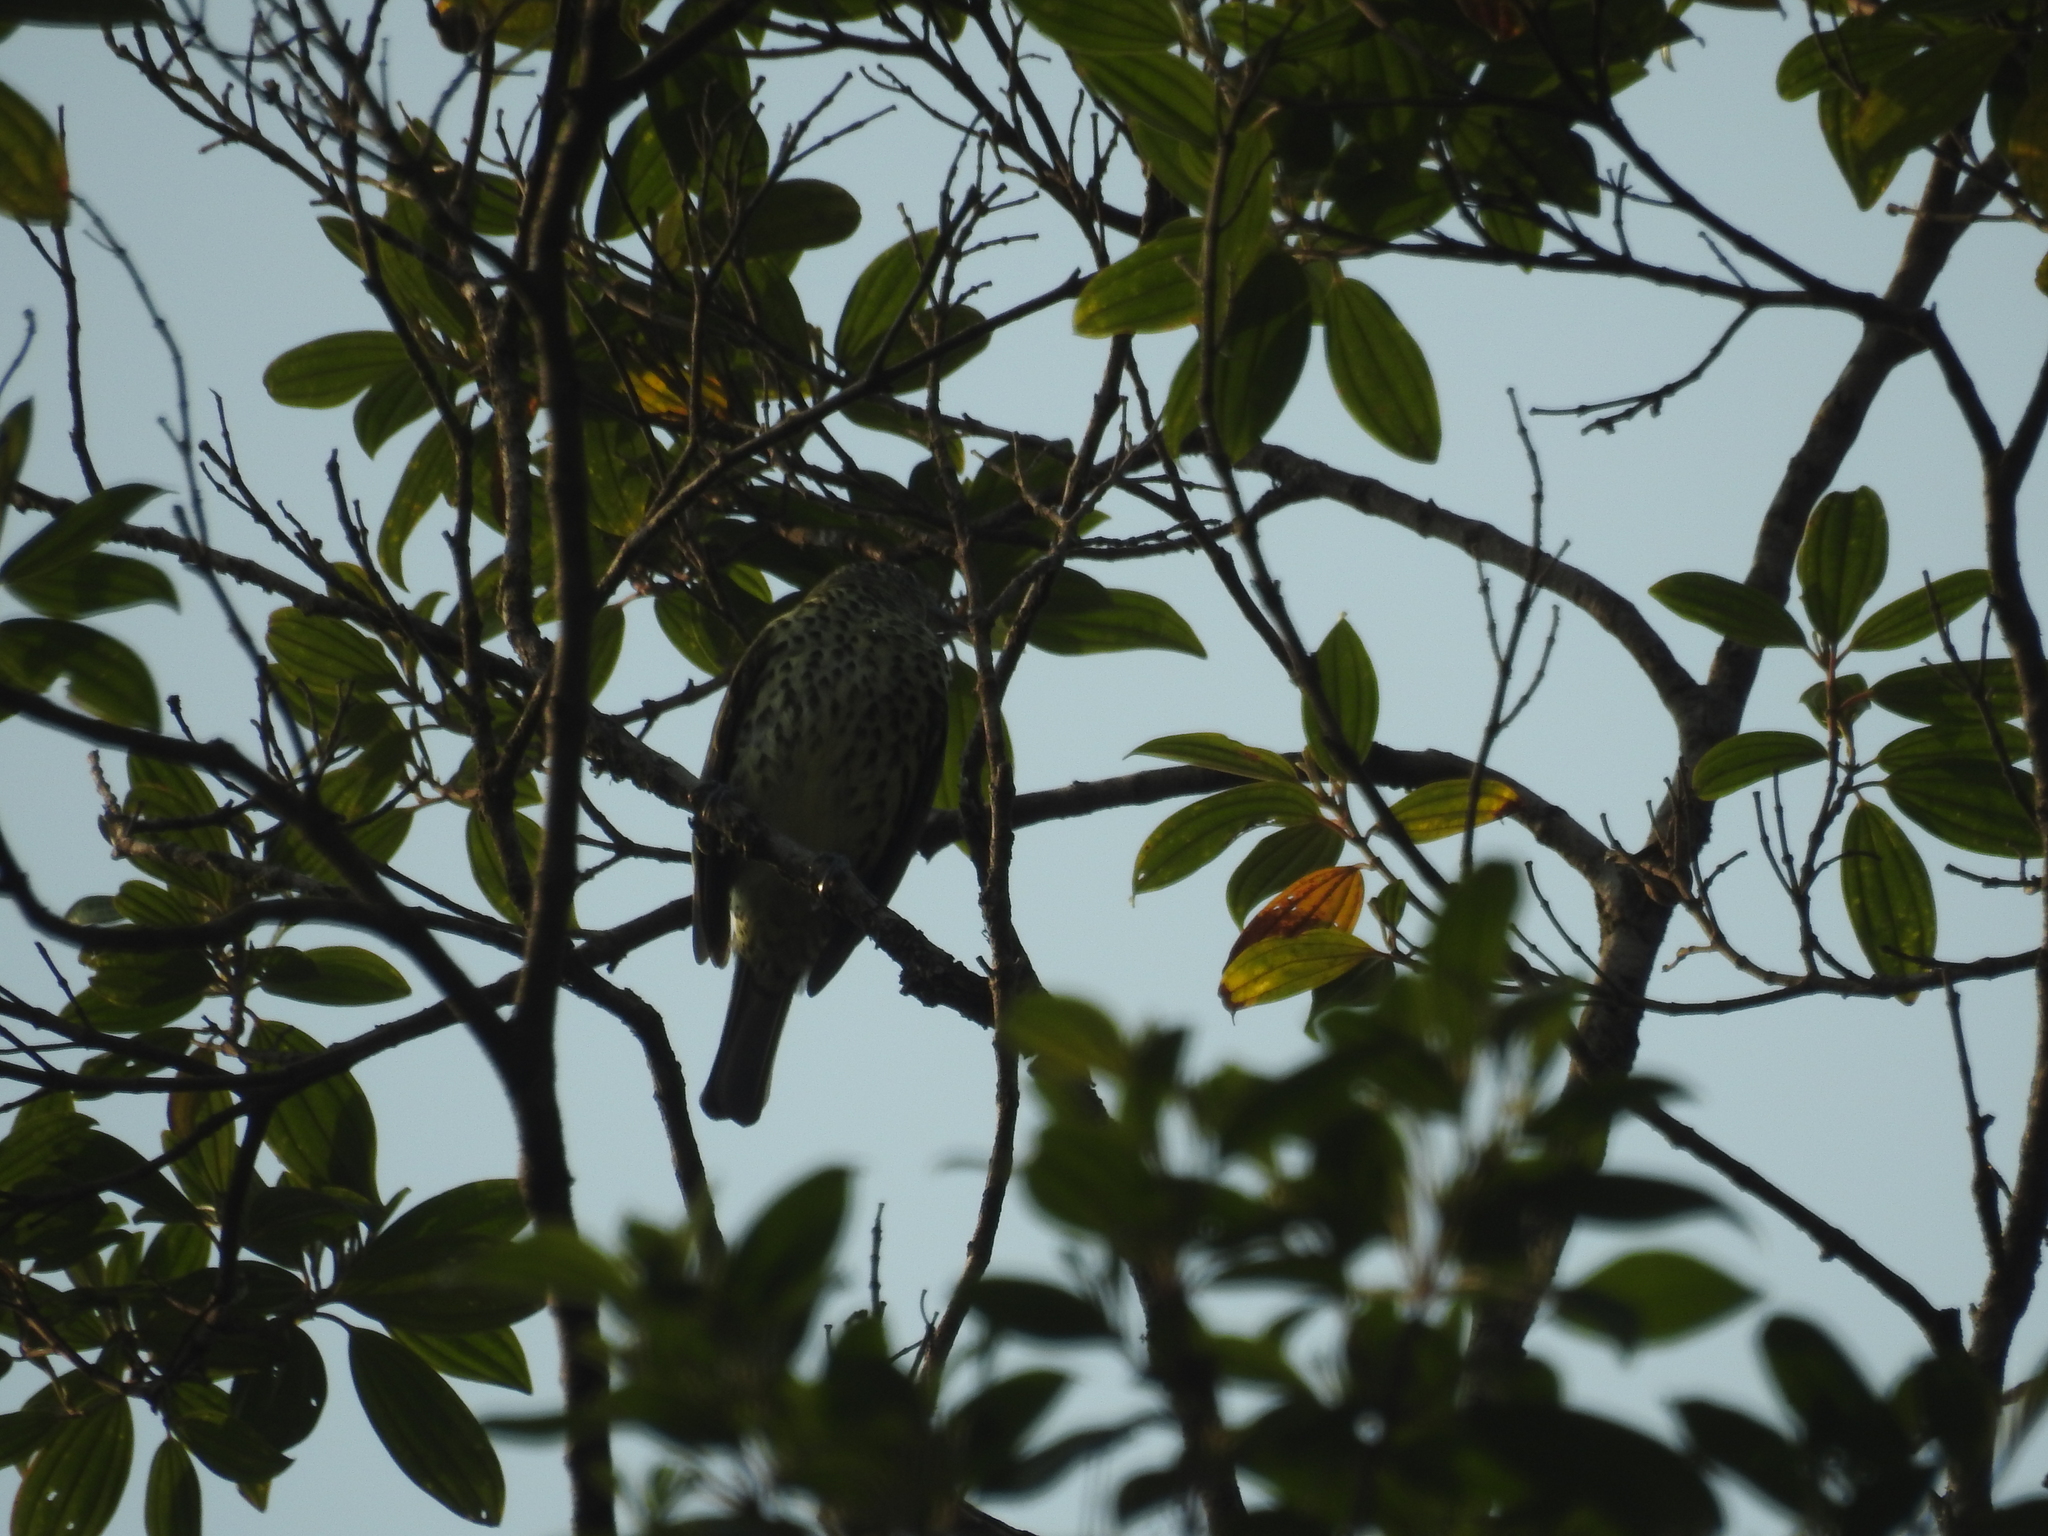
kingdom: Animalia
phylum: Chordata
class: Aves
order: Passeriformes
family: Cotingidae
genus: Oxyruncus
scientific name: Oxyruncus cristatus
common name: Sharpbill
